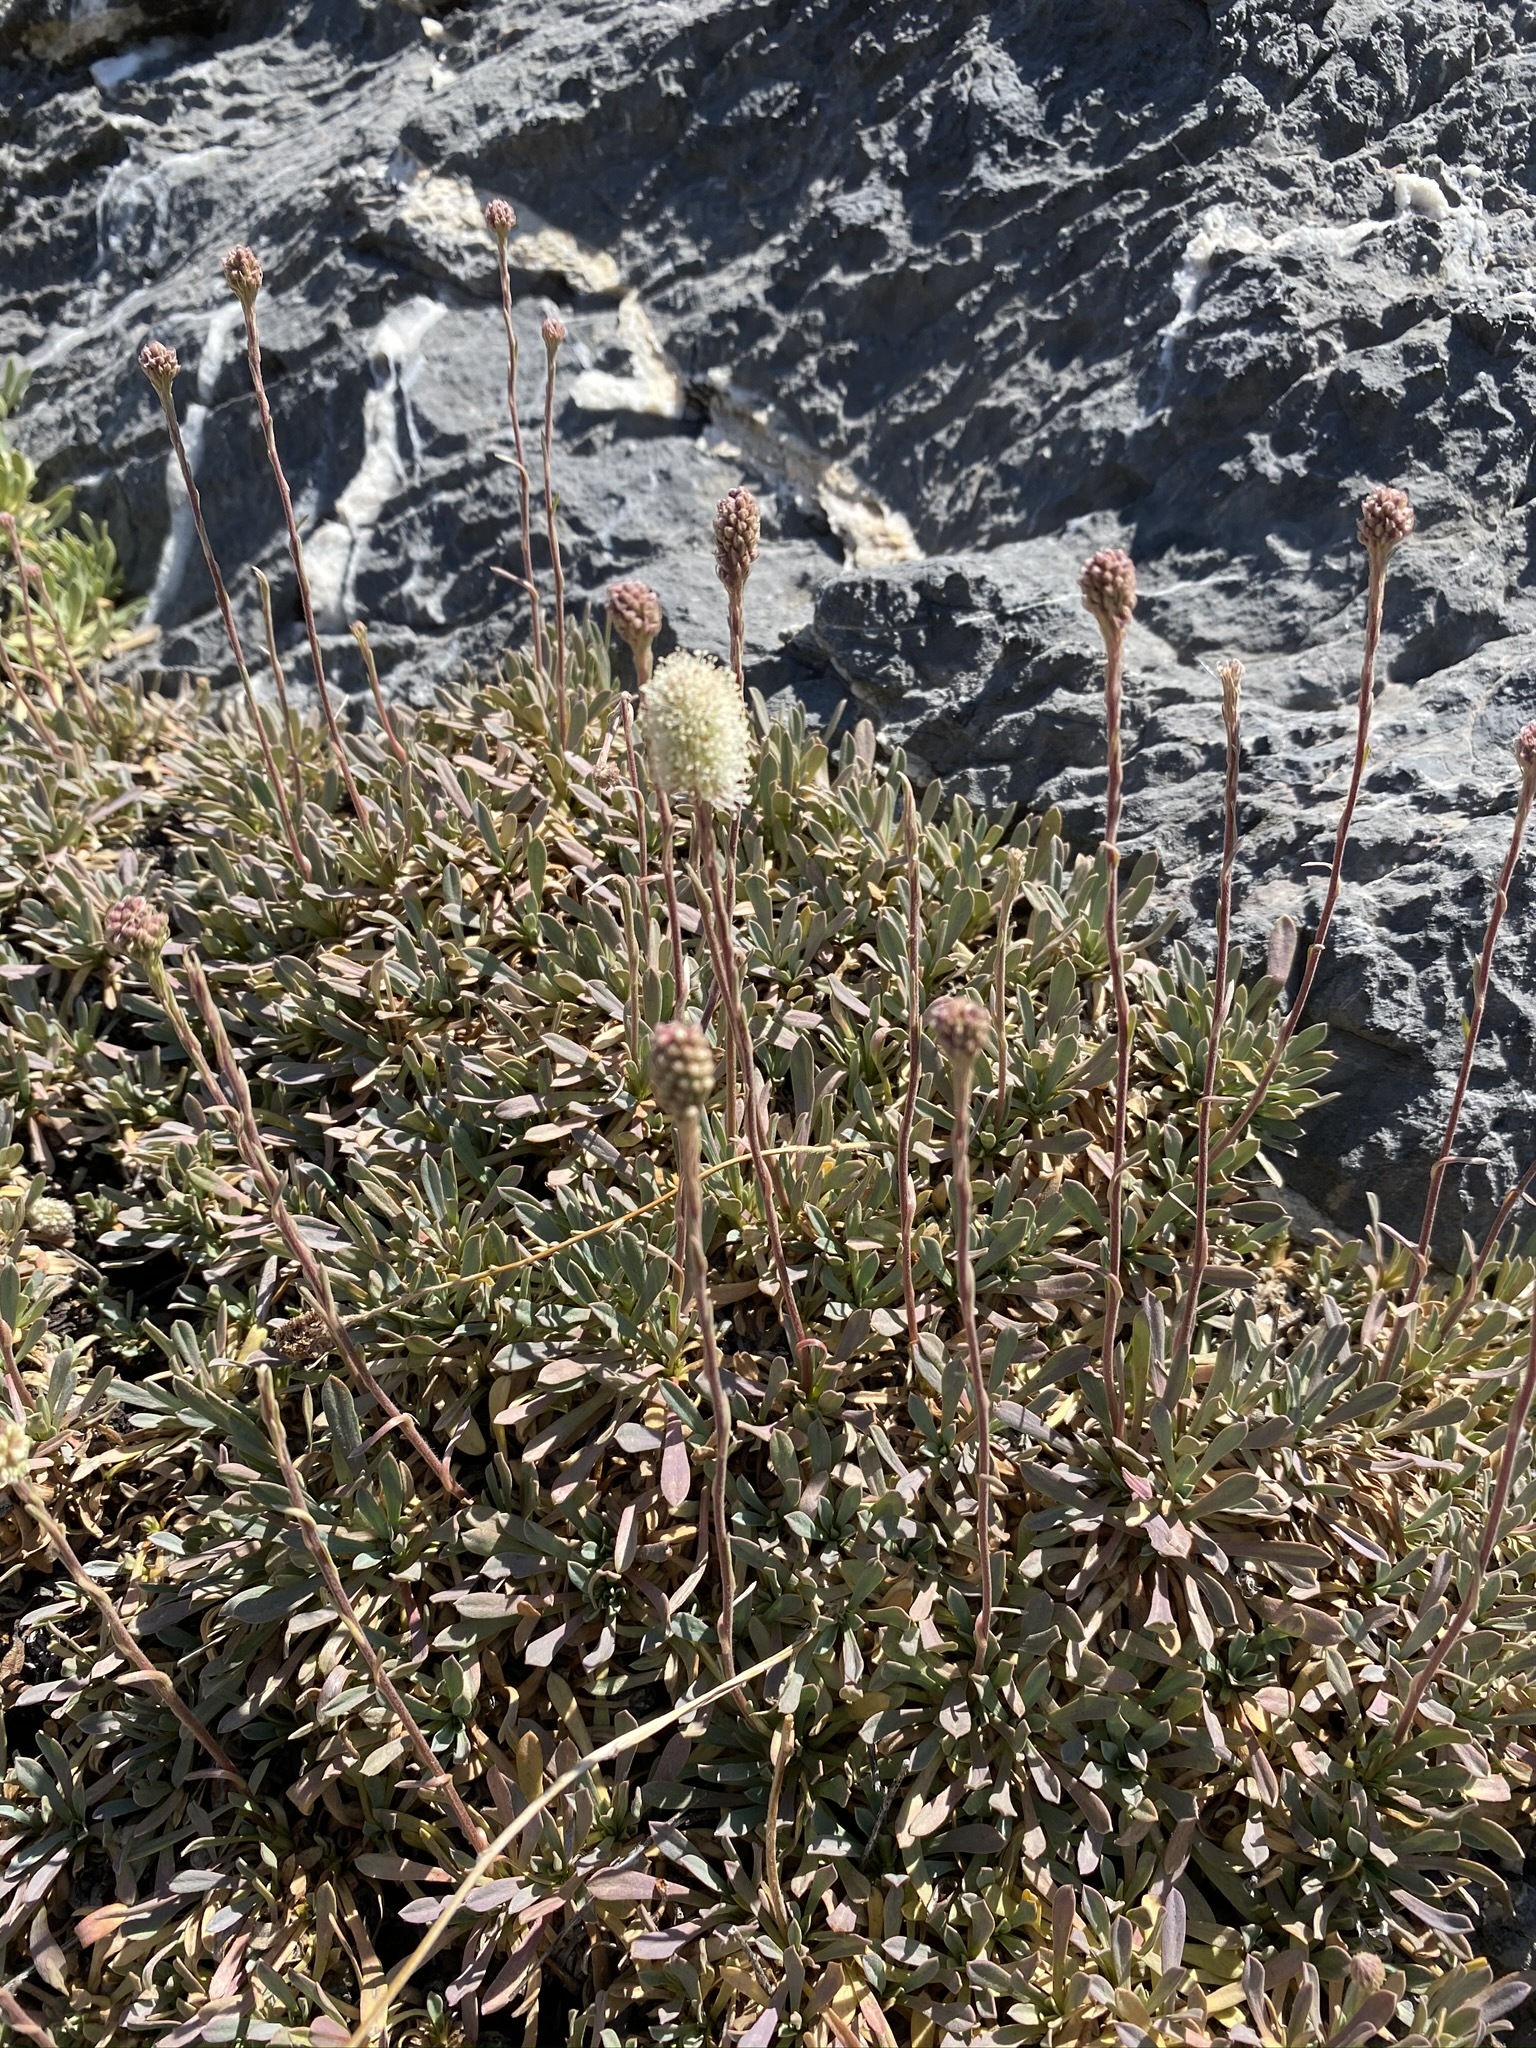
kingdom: Plantae
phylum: Tracheophyta
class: Magnoliopsida
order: Rosales
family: Rosaceae
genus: Petrophytum
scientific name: Petrophytum caespitosum
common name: Mat rockspirea
